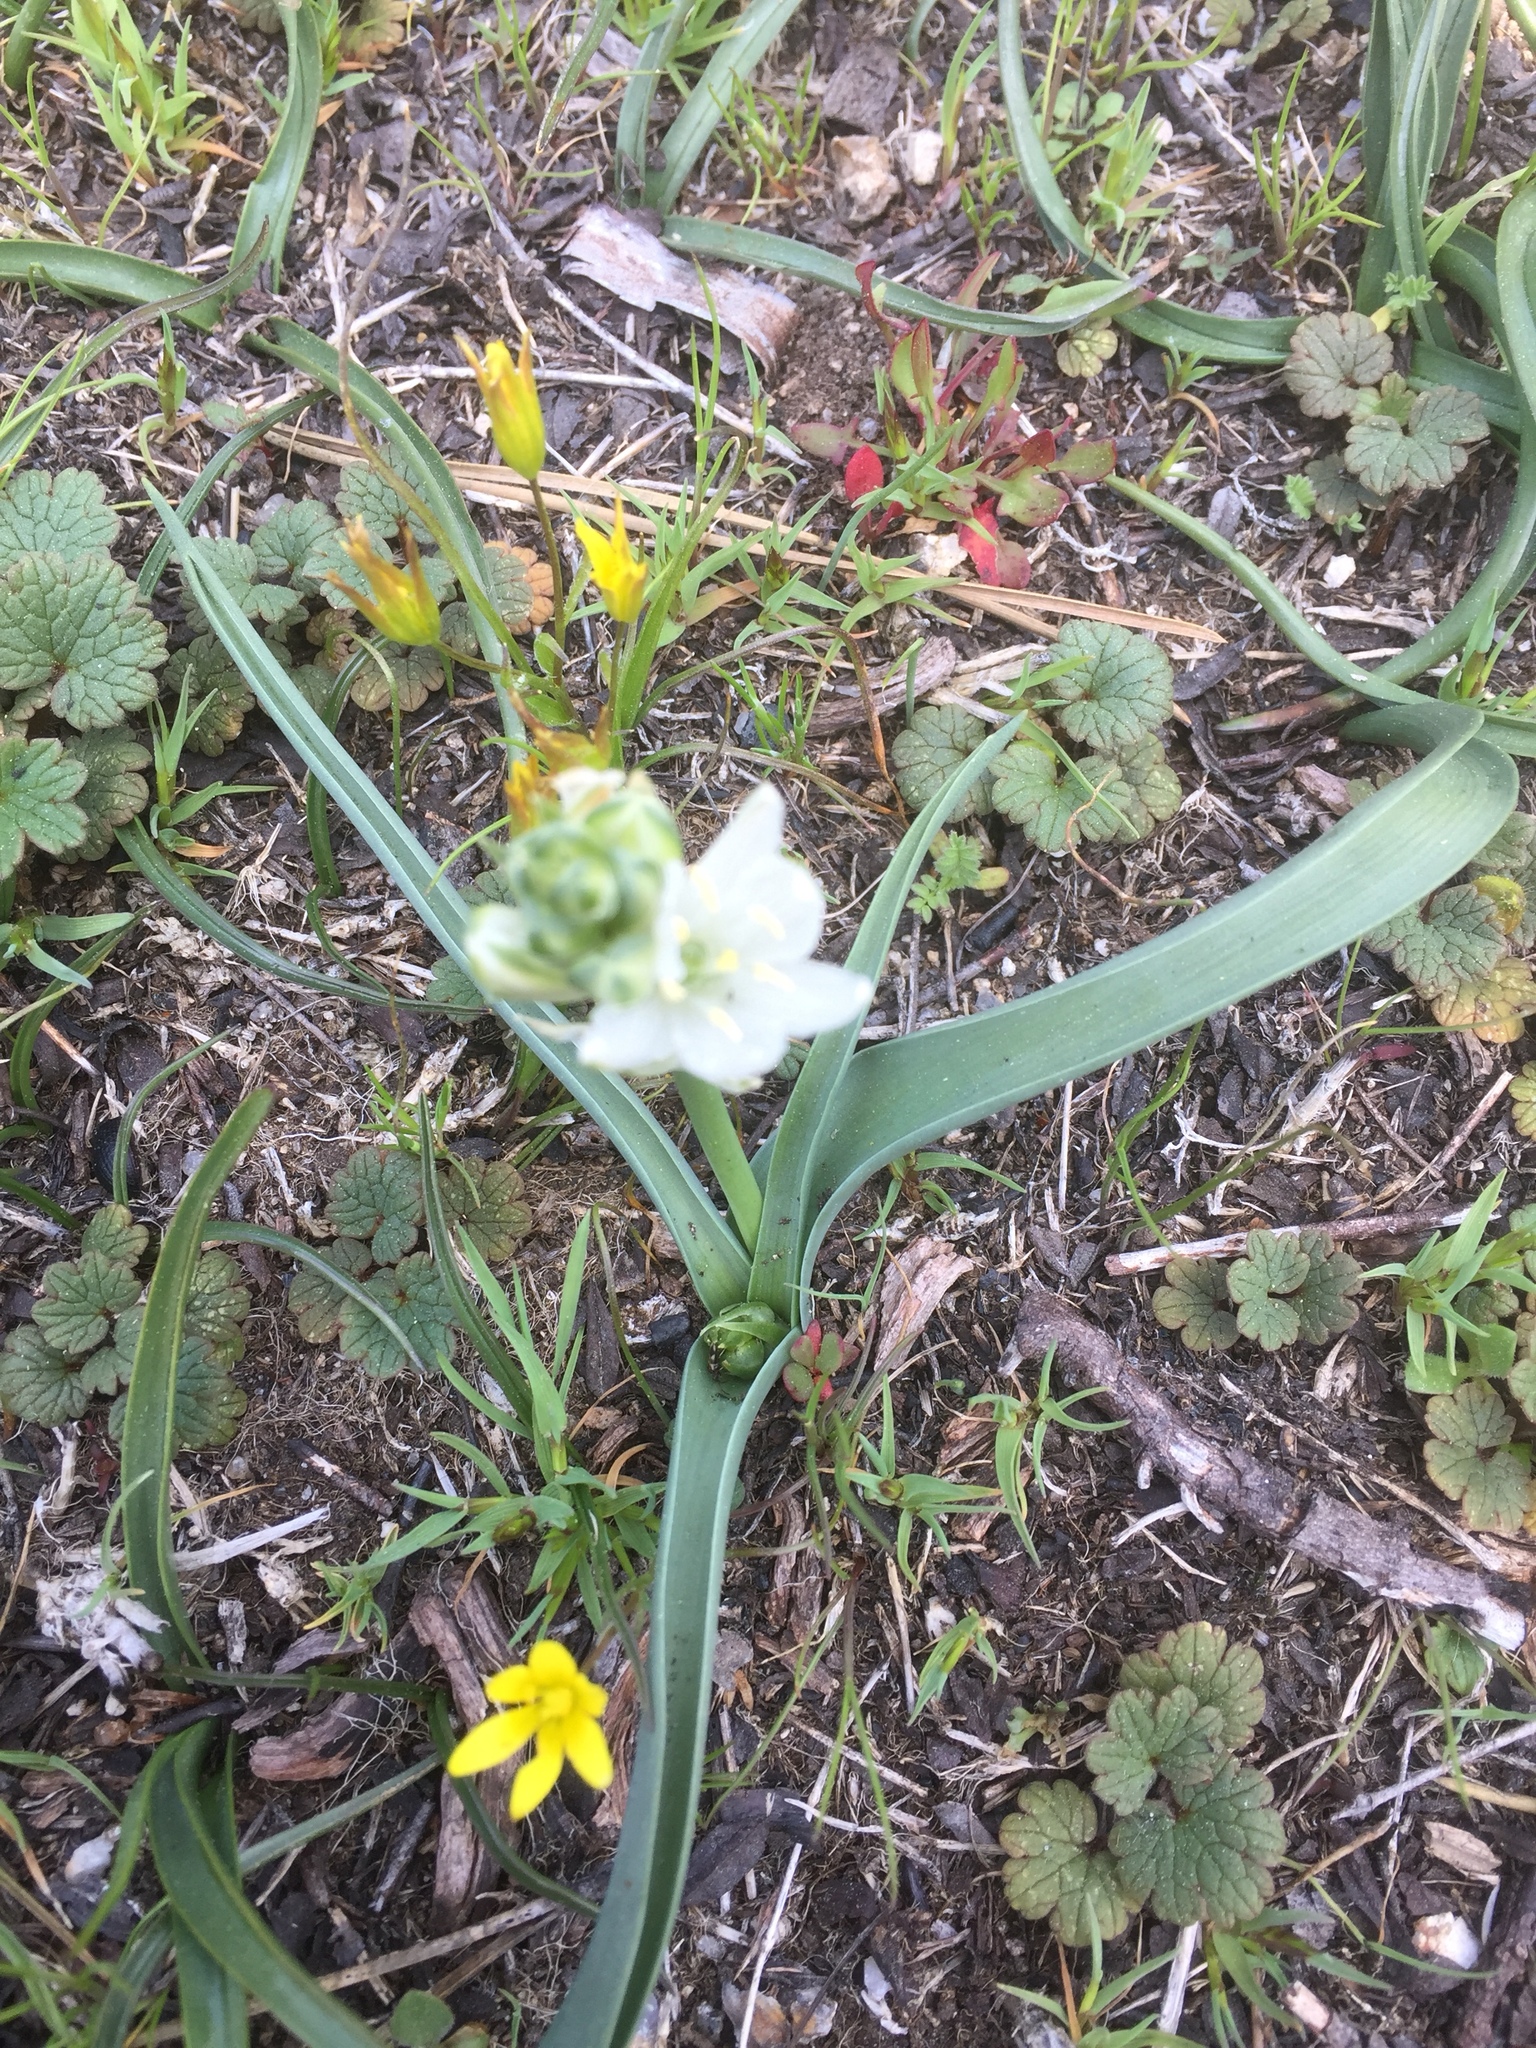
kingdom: Plantae
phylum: Tracheophyta
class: Liliopsida
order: Asparagales
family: Asparagaceae
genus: Ornithogalum
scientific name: Ornithogalum concinnum
